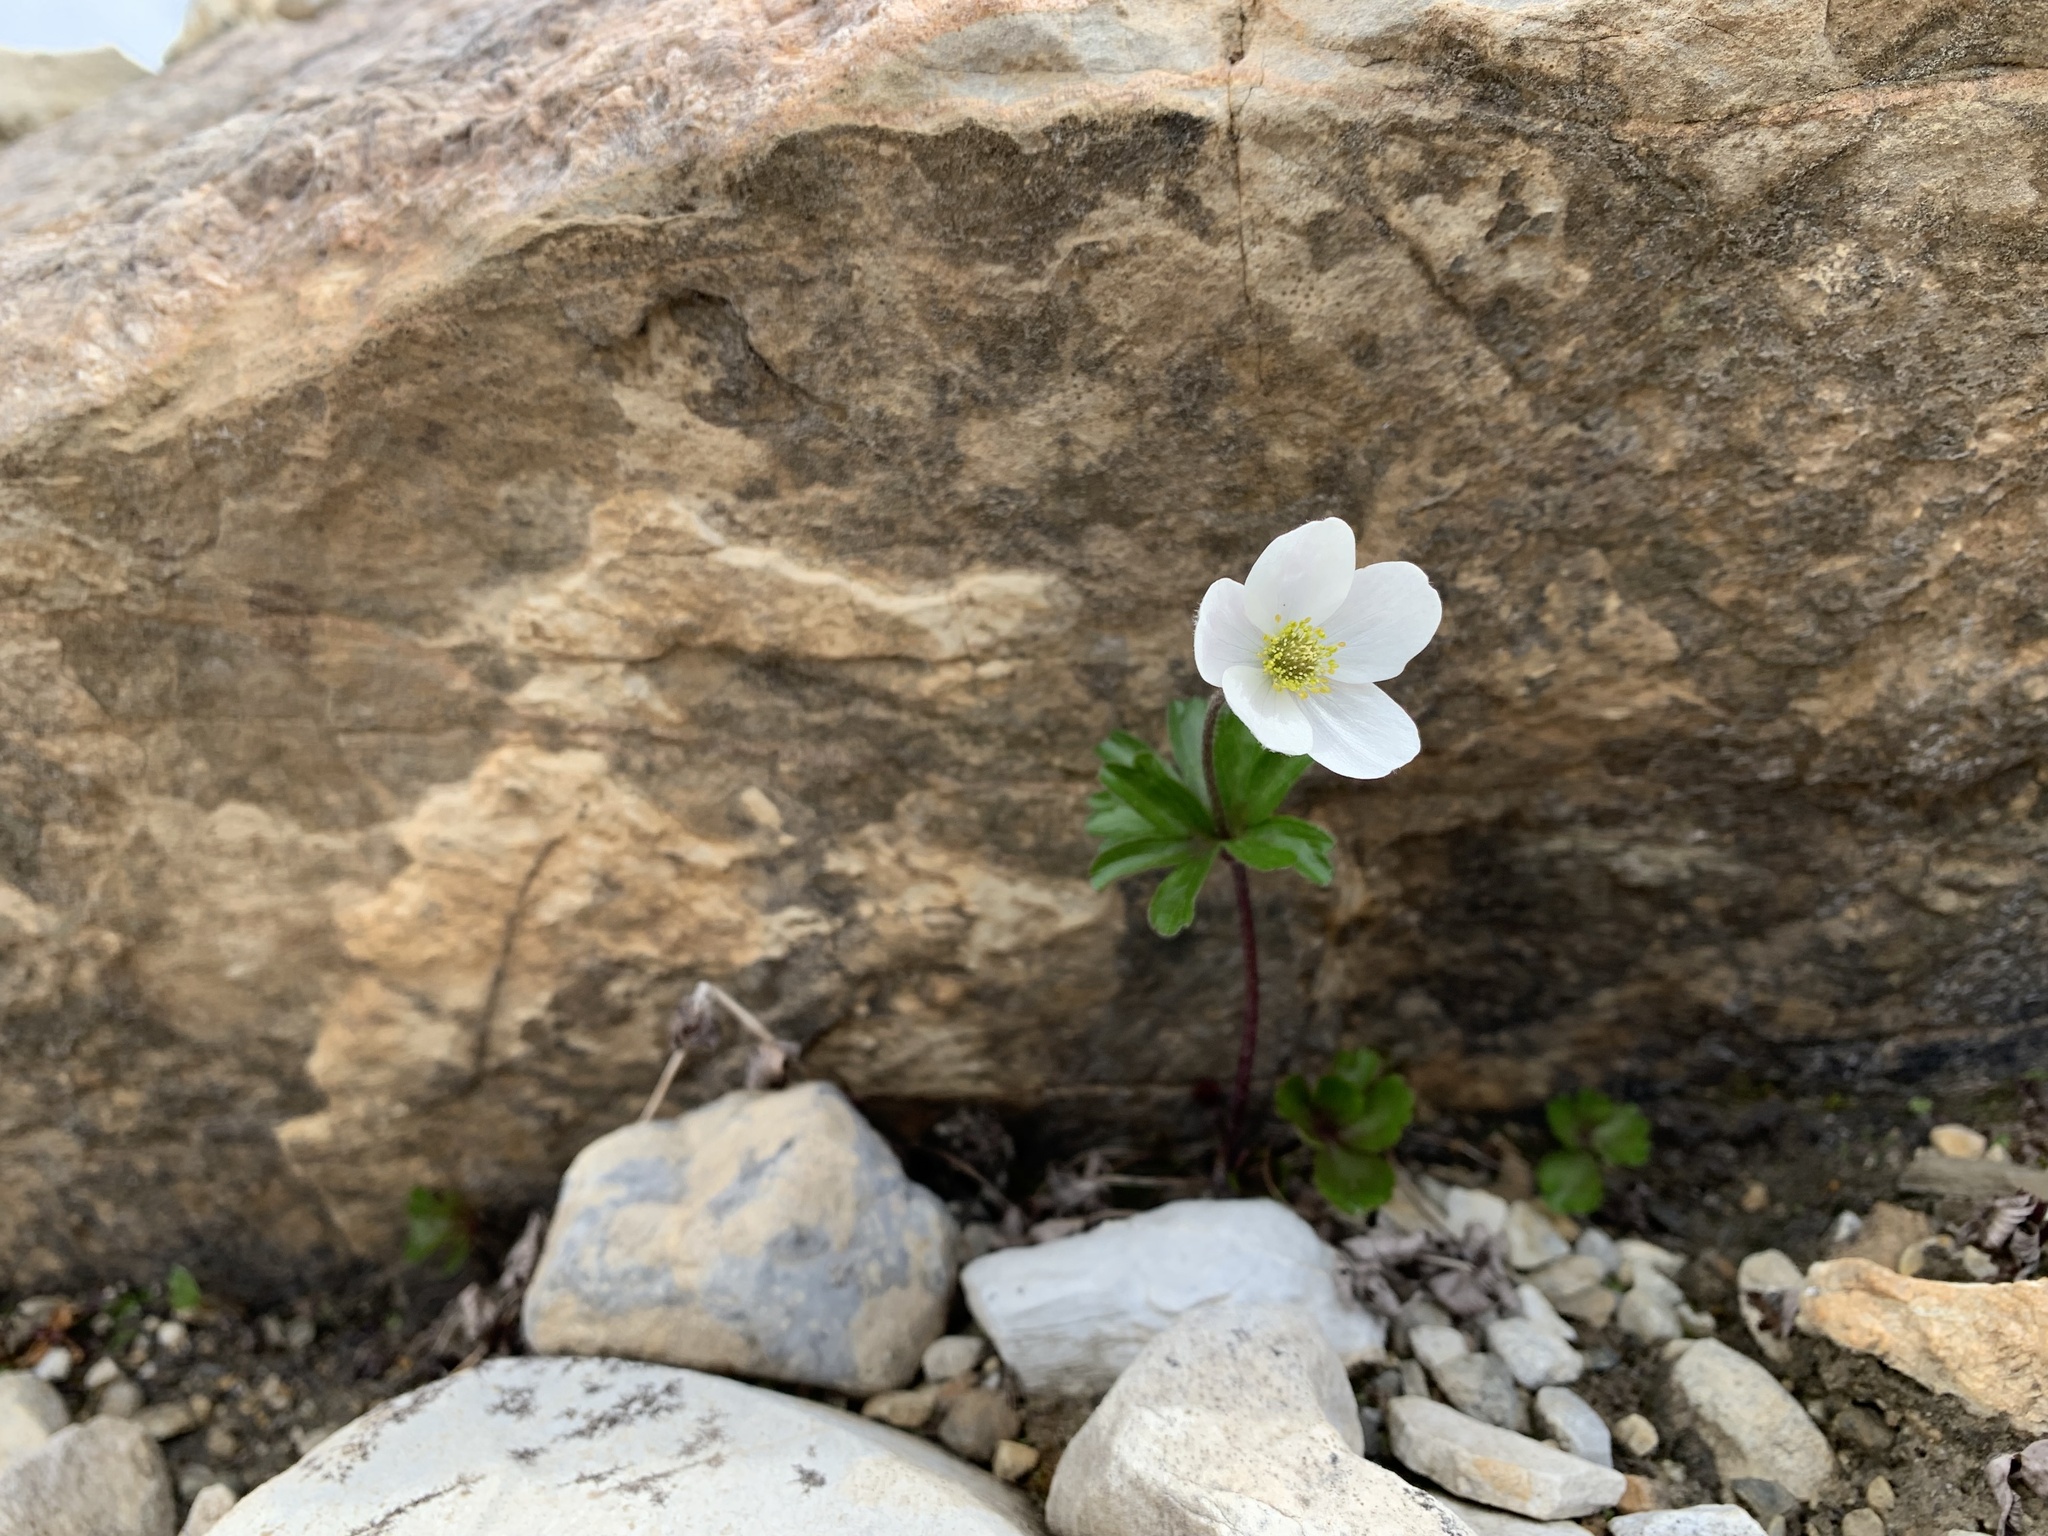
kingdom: Plantae
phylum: Tracheophyta
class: Magnoliopsida
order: Ranunculales
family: Ranunculaceae
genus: Anemone
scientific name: Anemone parviflora
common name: Northern anemone
